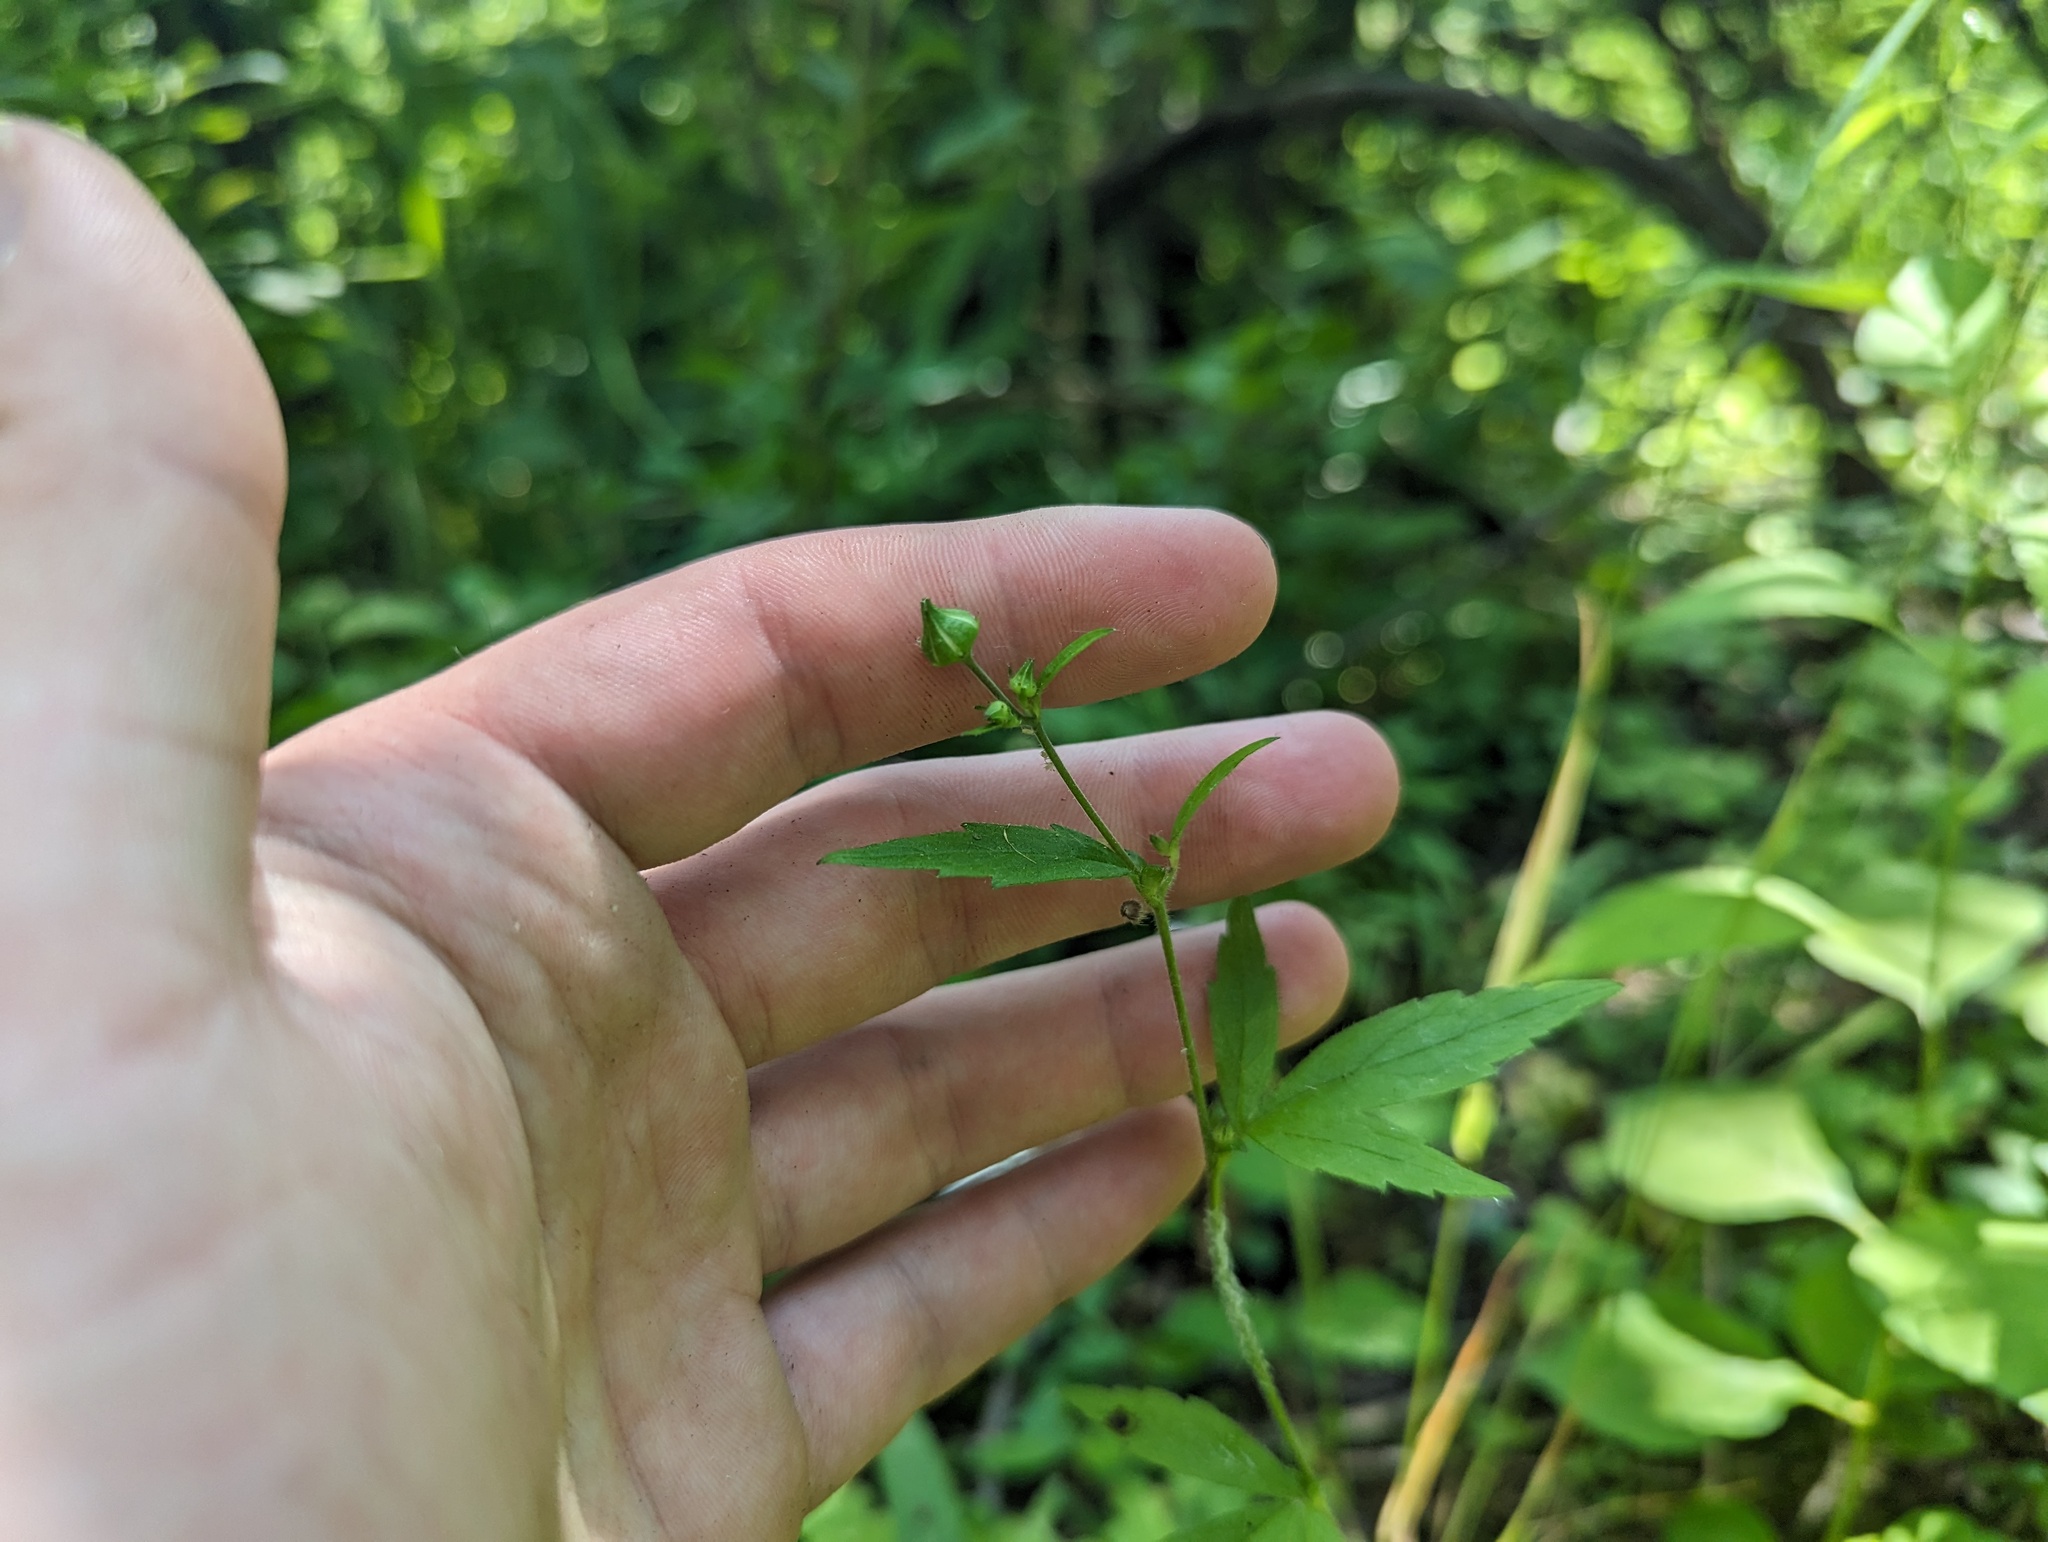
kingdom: Plantae
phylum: Tracheophyta
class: Magnoliopsida
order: Rosales
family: Rosaceae
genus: Geum
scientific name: Geum canadense
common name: White avens
